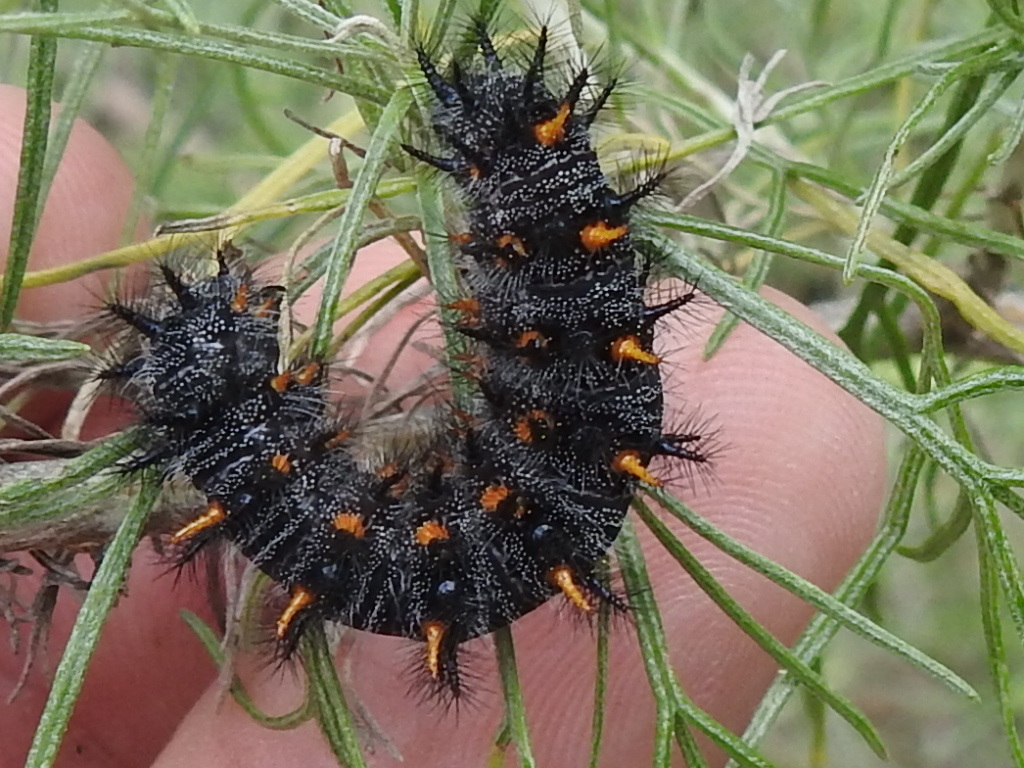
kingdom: Animalia
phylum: Arthropoda
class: Insecta
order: Lepidoptera
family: Nymphalidae
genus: Occidryas
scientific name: Occidryas chalcedona
